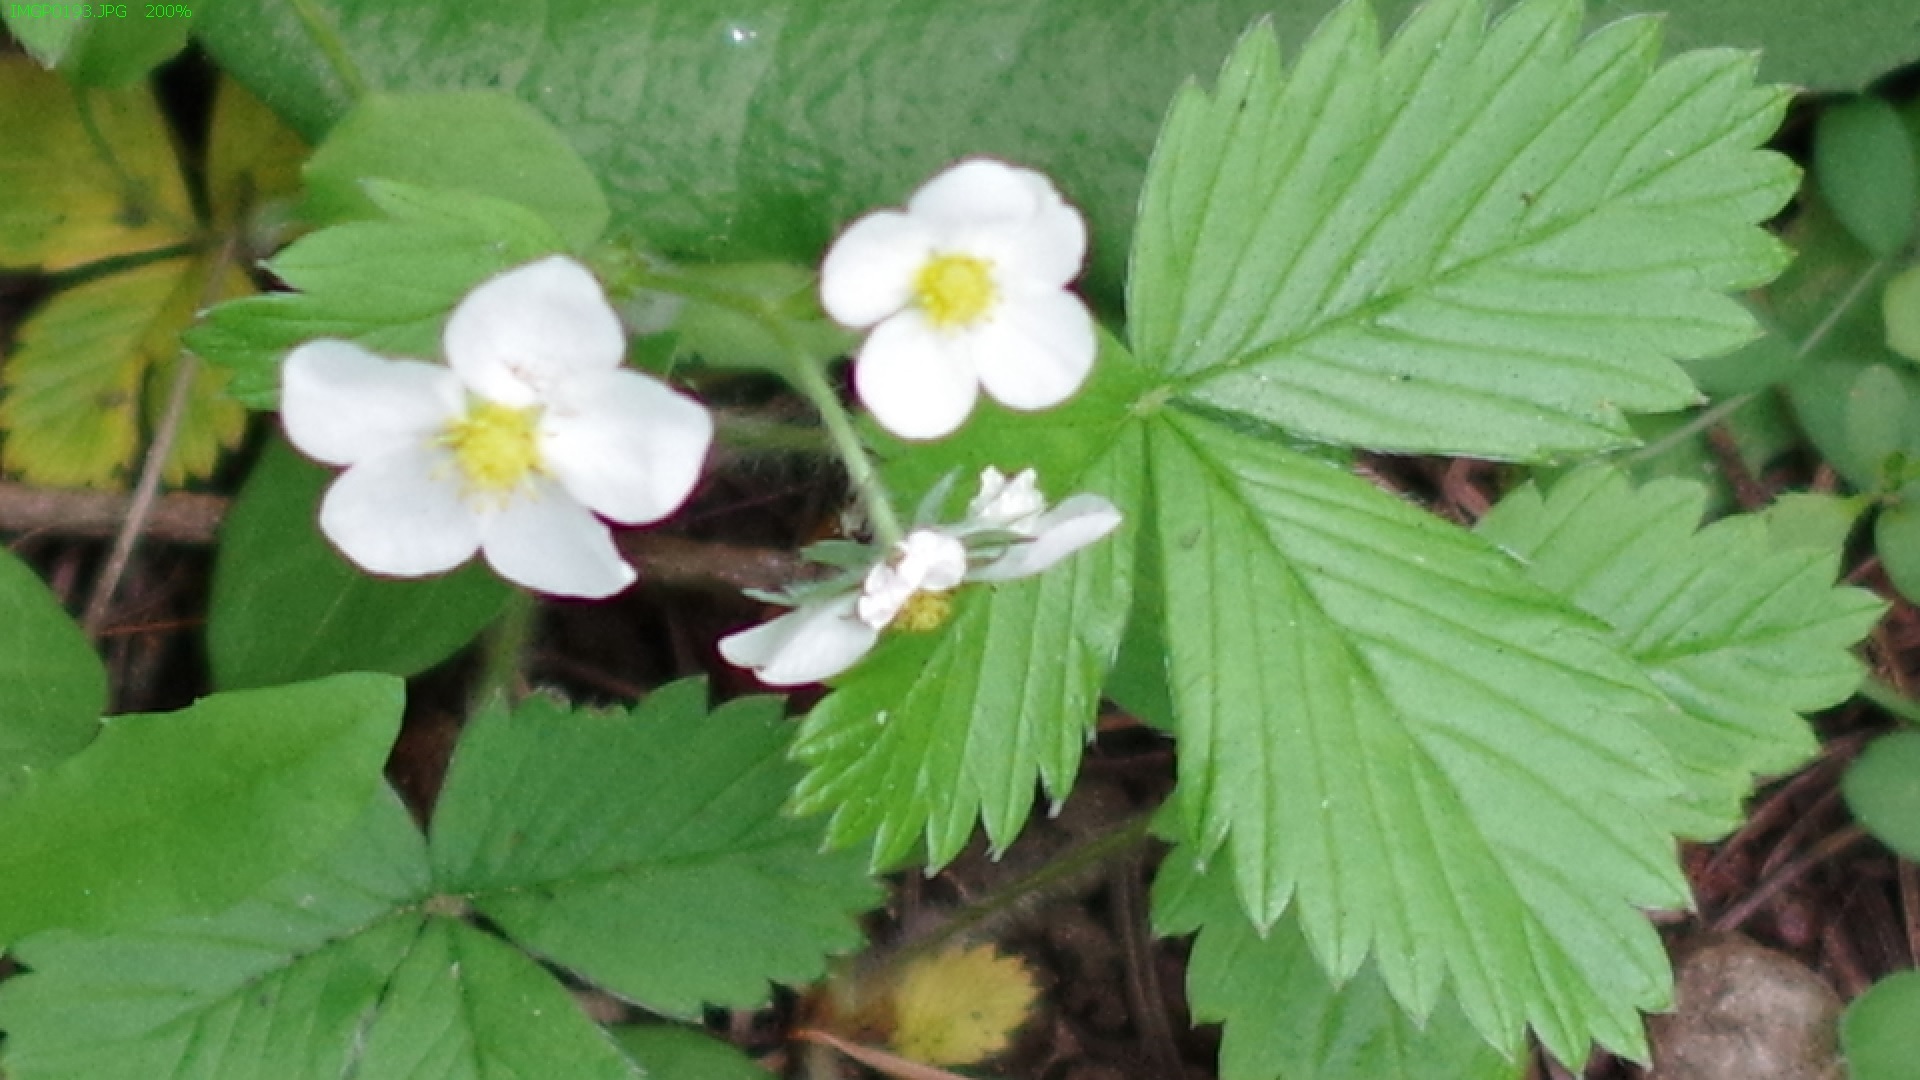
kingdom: Plantae
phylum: Tracheophyta
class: Magnoliopsida
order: Rosales
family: Rosaceae
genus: Fragaria
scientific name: Fragaria vesca
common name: Wild strawberry
